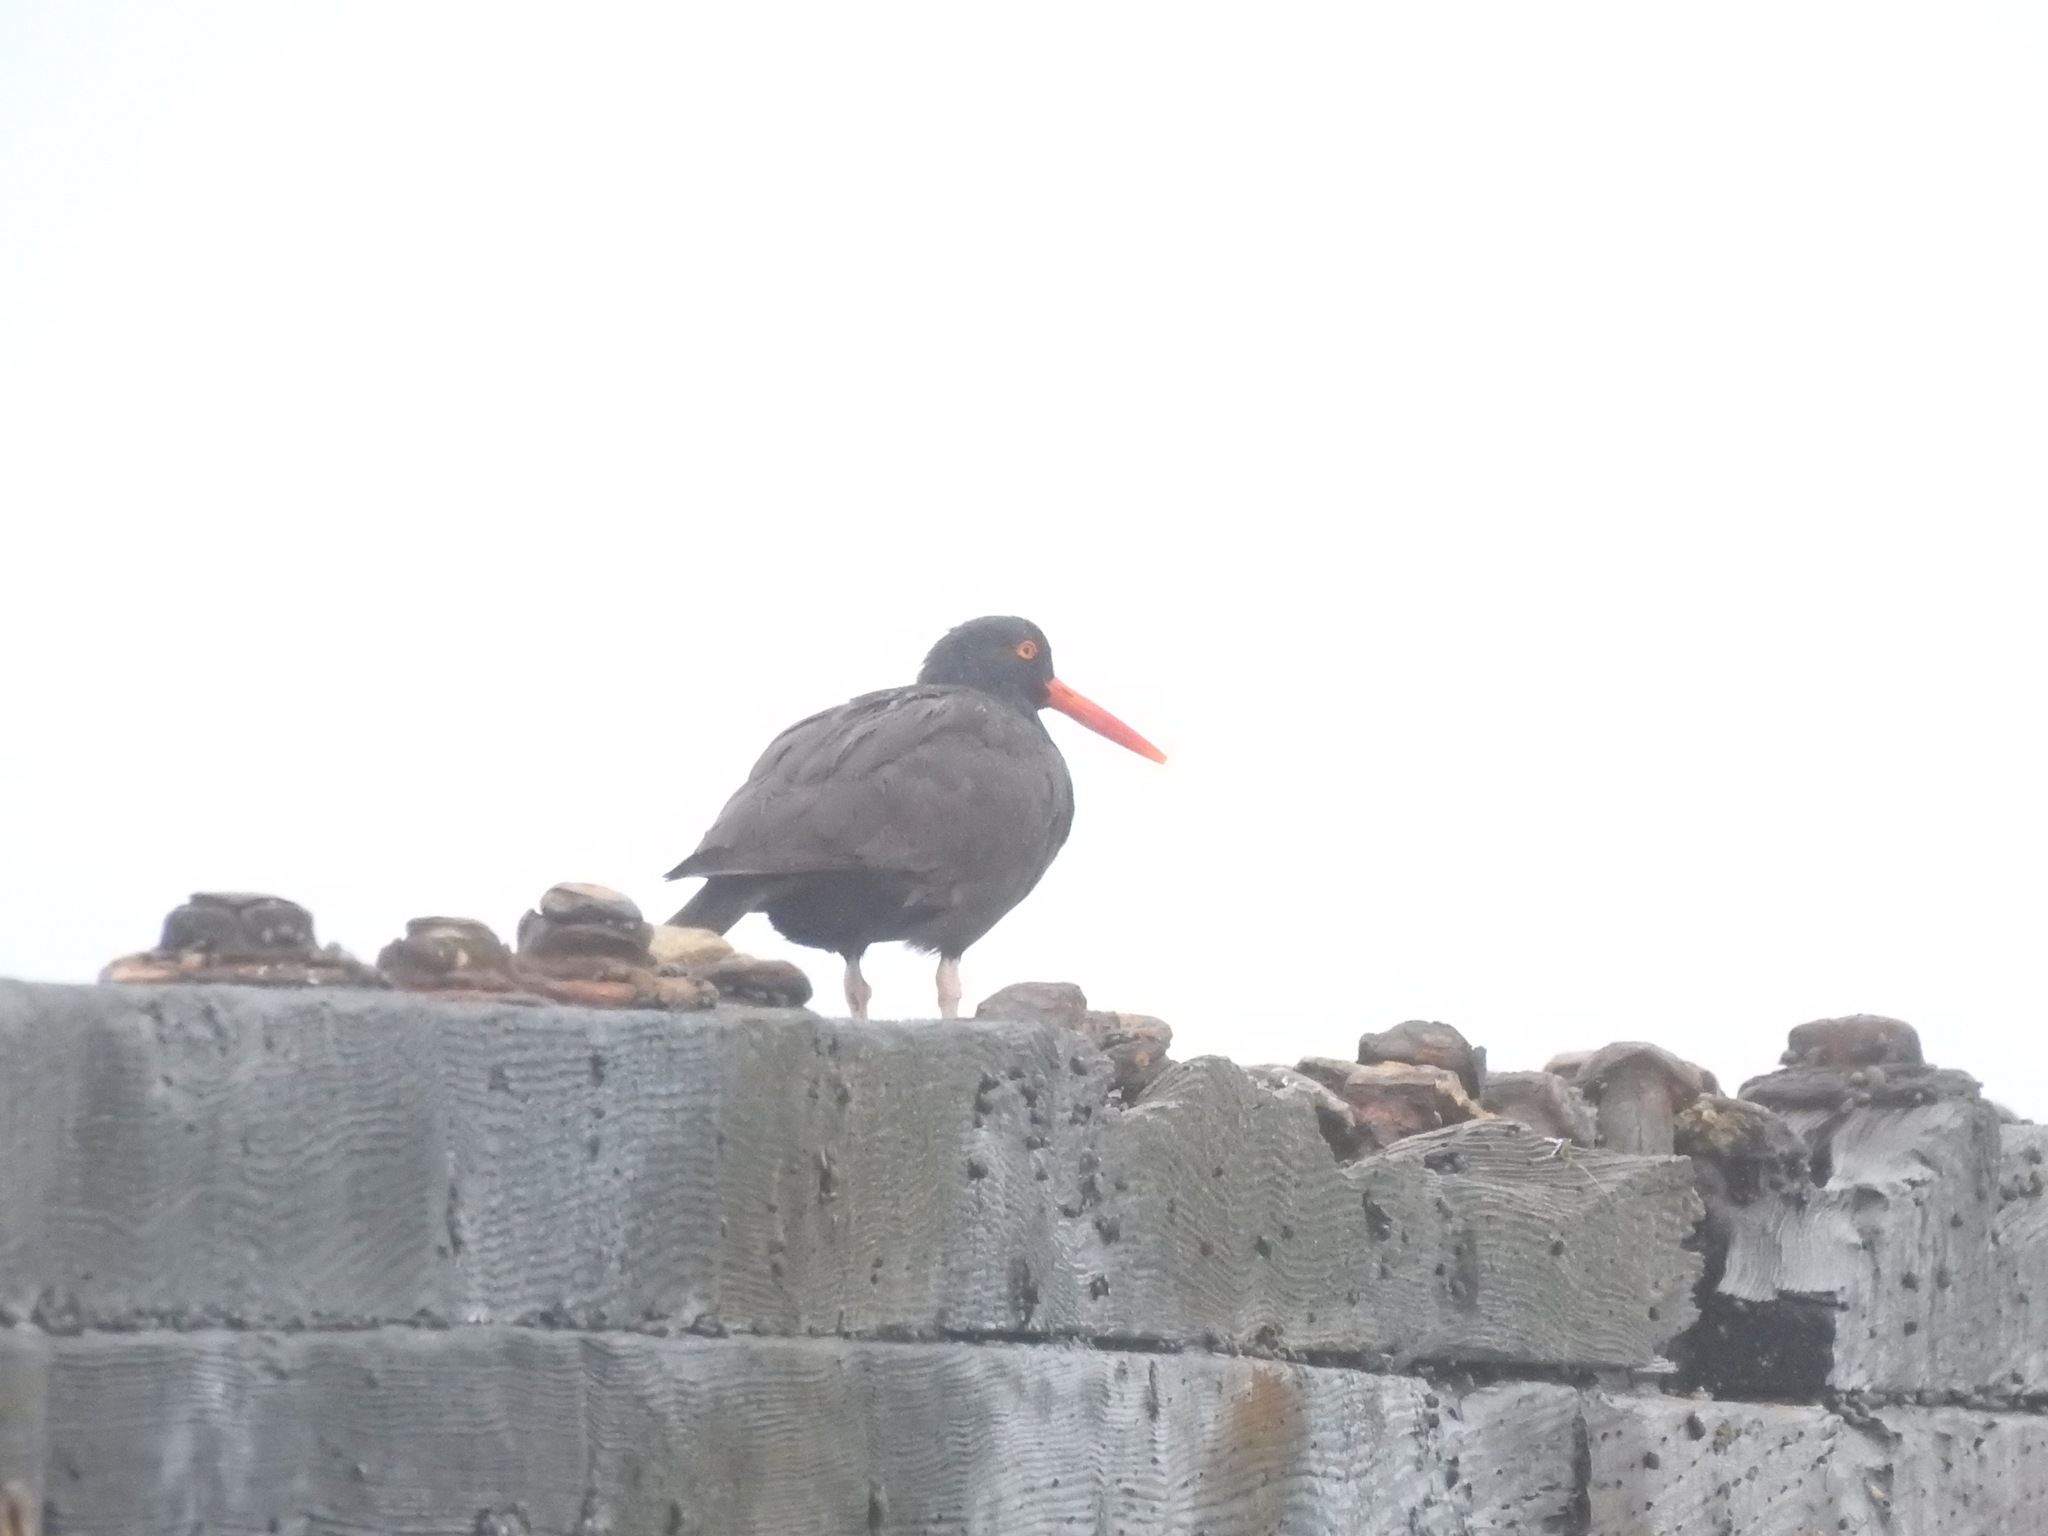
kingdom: Animalia
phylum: Chordata
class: Aves
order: Charadriiformes
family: Haematopodidae
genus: Haematopus
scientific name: Haematopus bachmani
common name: Black oystercatcher
